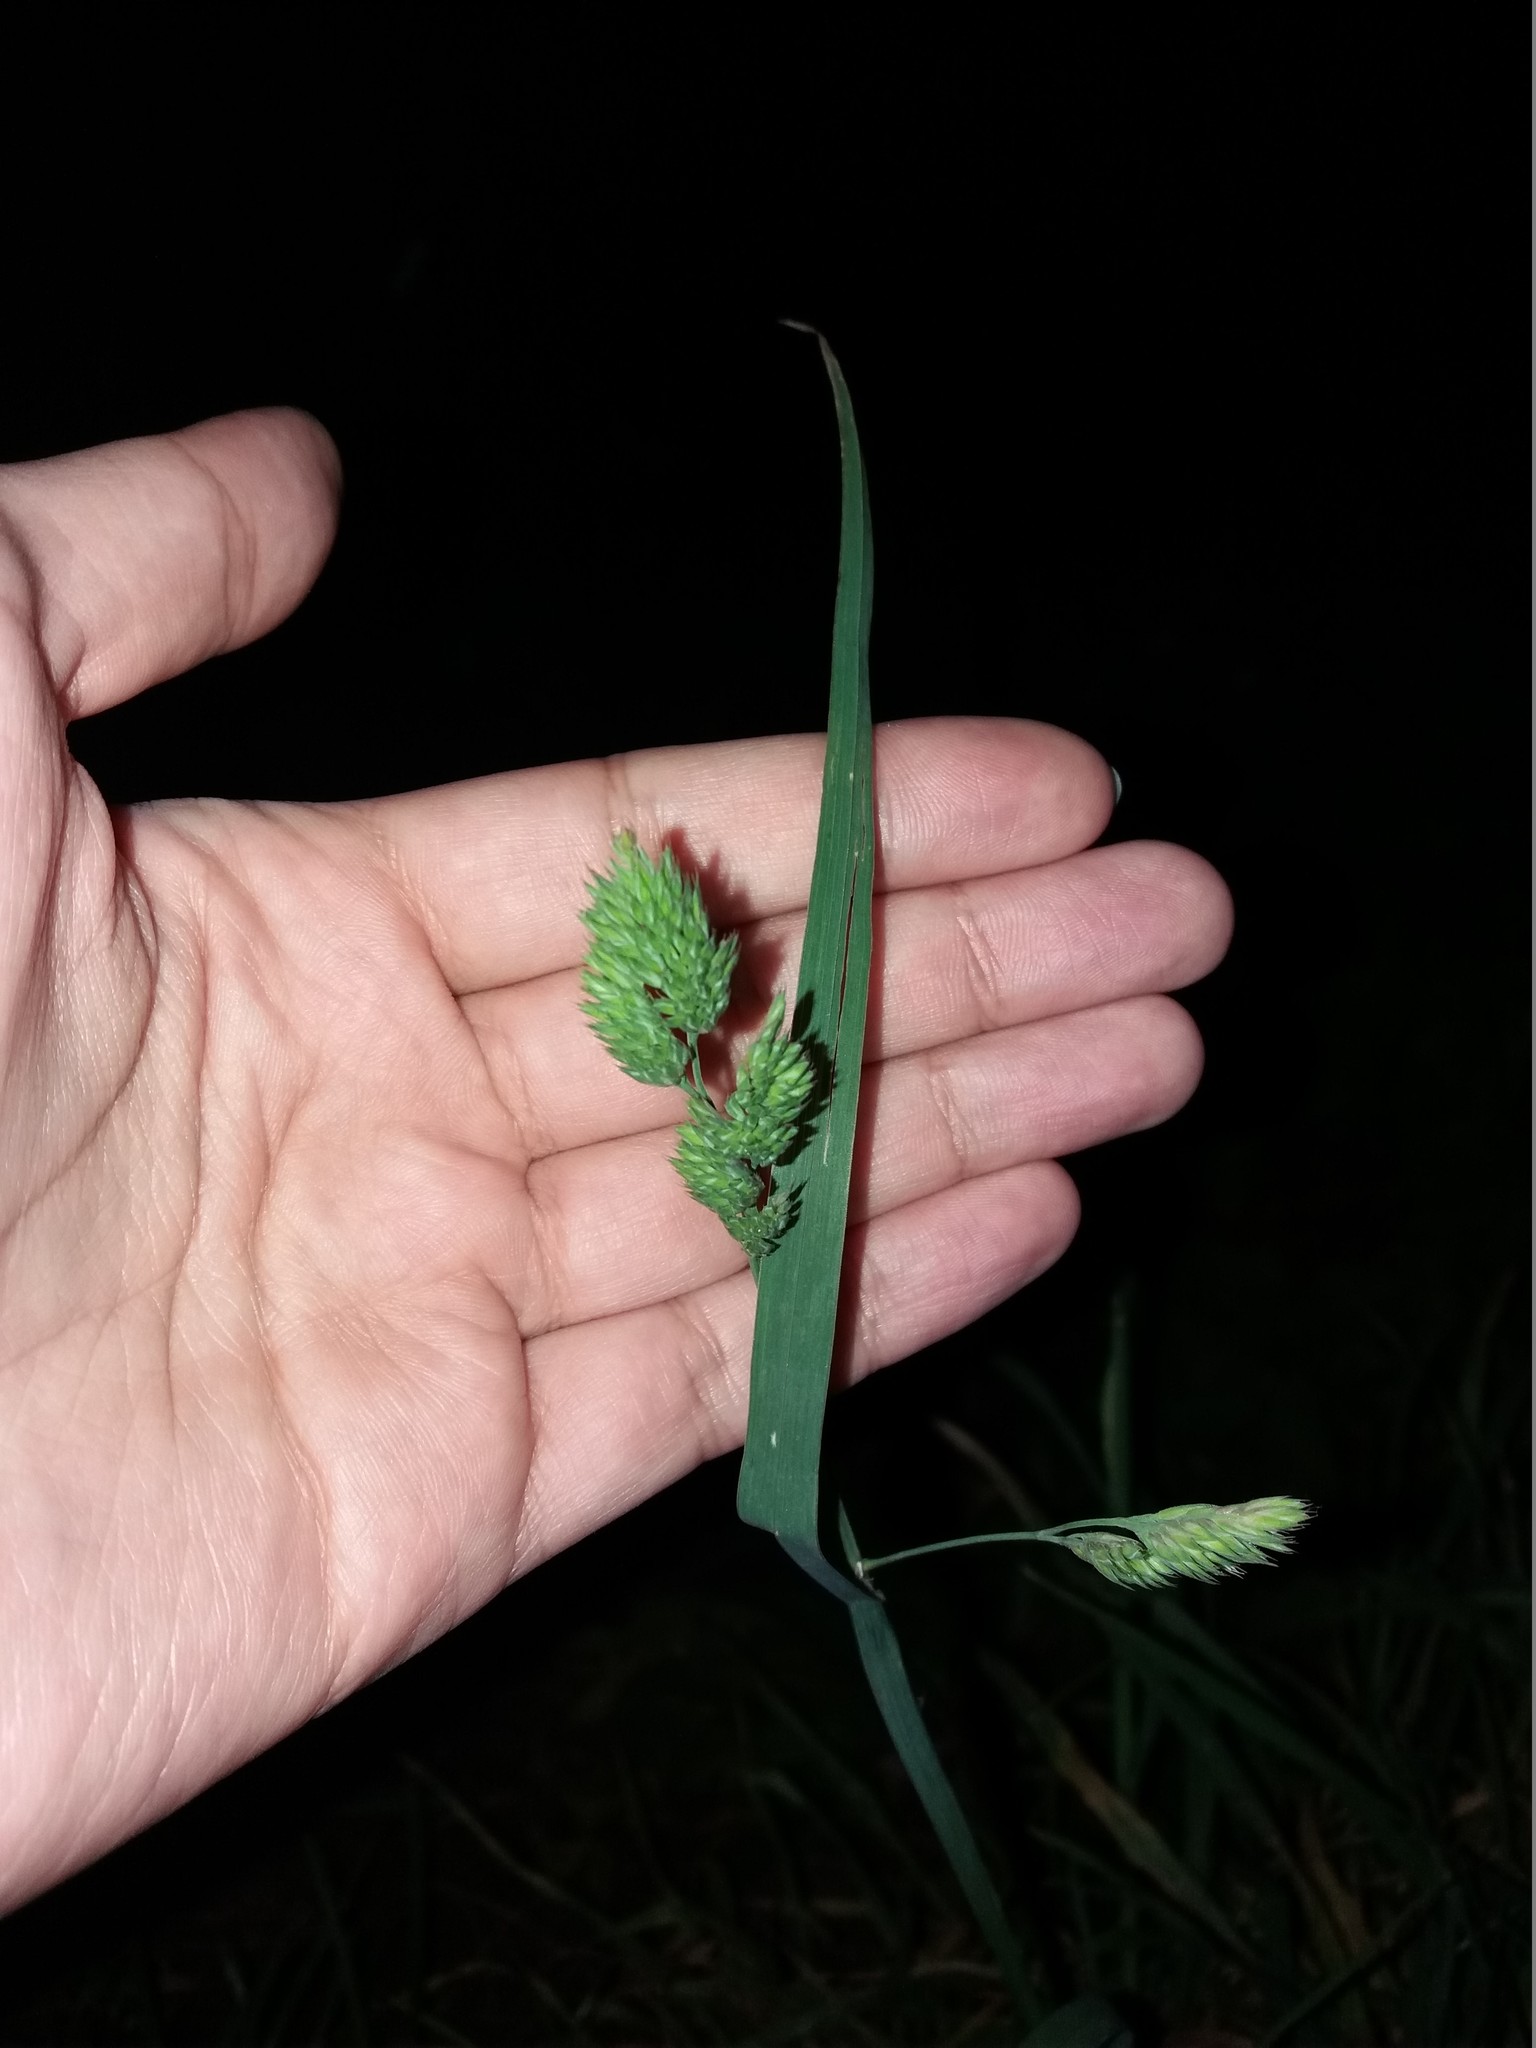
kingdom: Plantae
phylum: Tracheophyta
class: Liliopsida
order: Poales
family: Poaceae
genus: Dactylis
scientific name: Dactylis glomerata
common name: Orchardgrass
